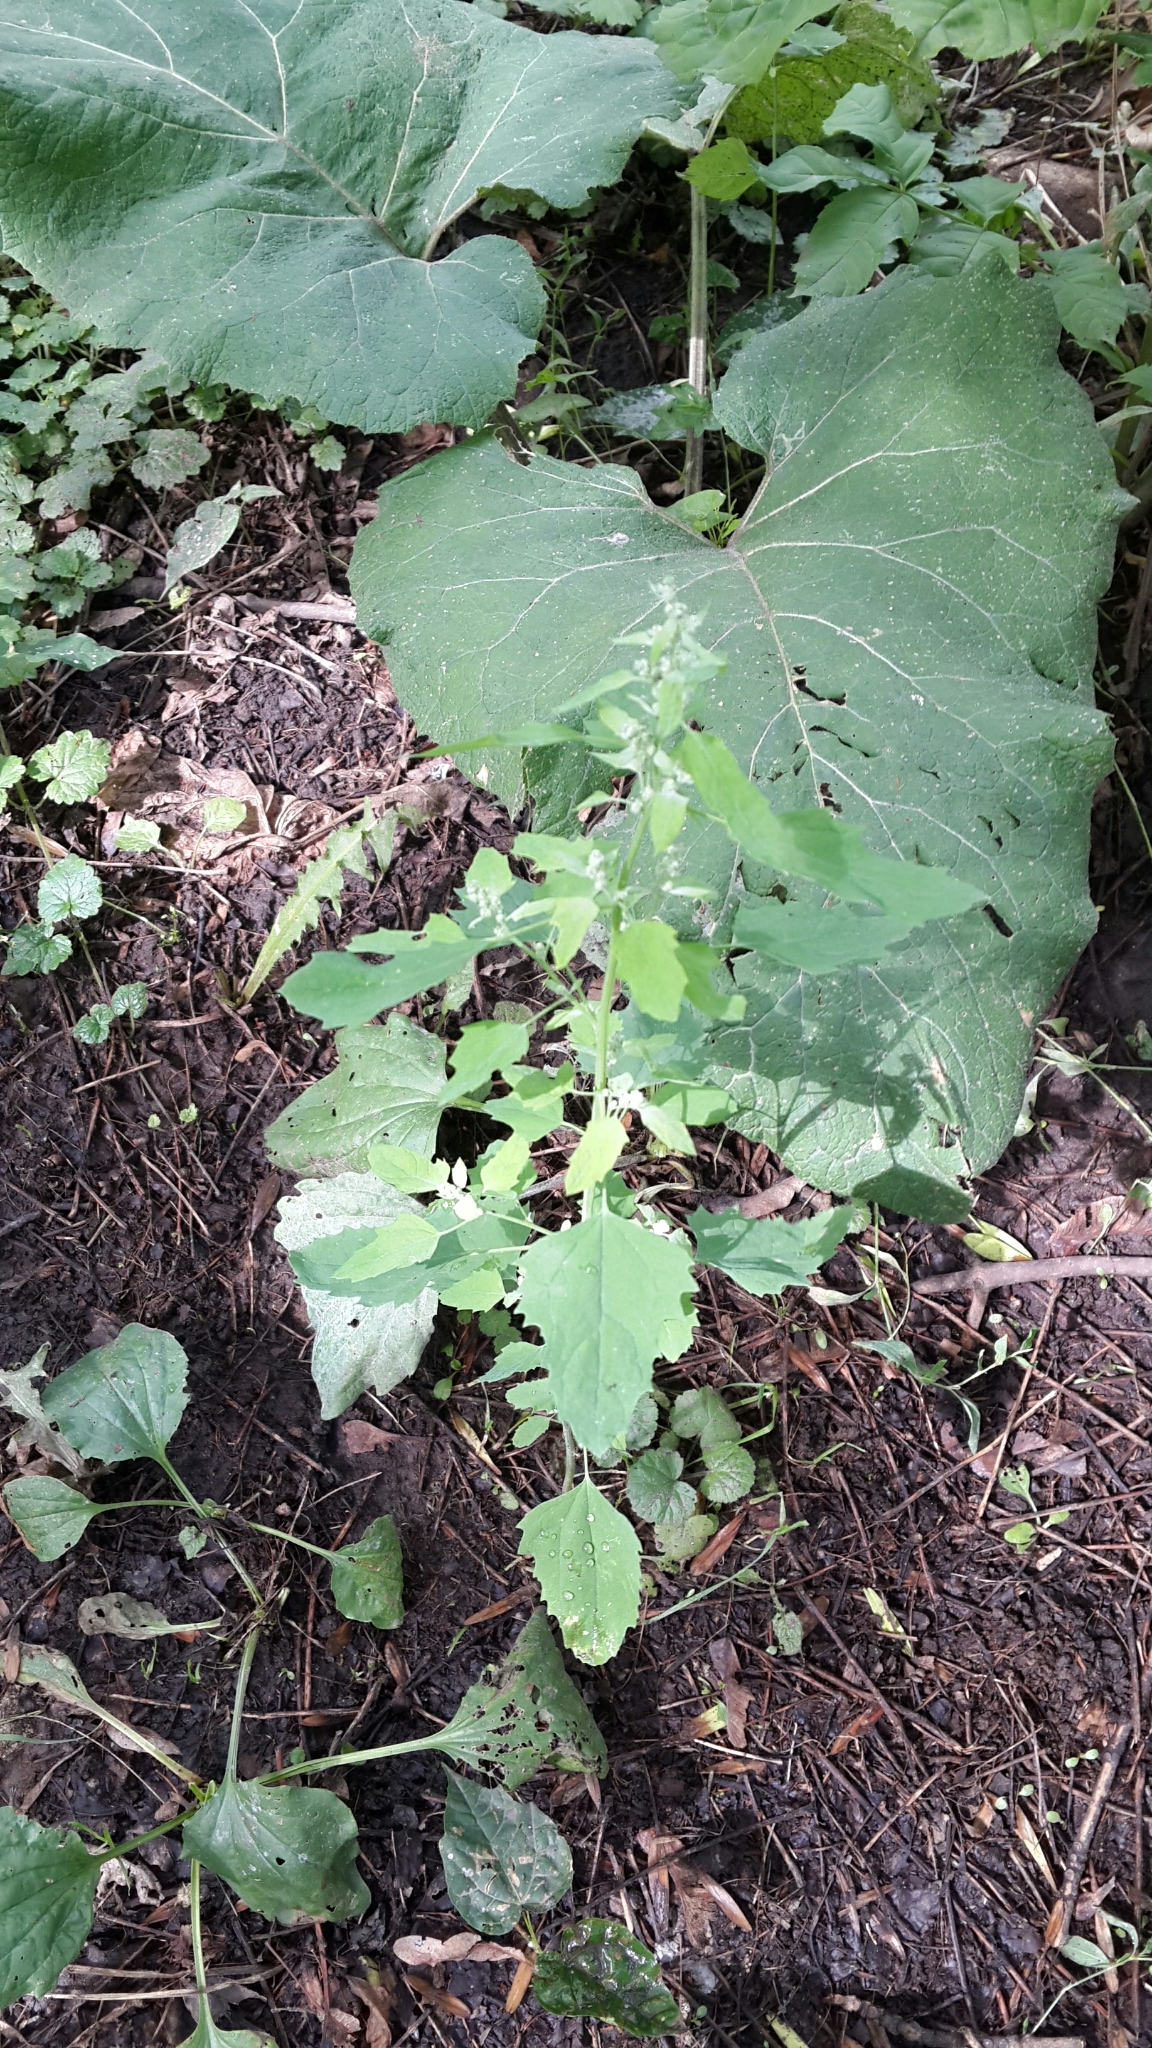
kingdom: Plantae
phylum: Tracheophyta
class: Magnoliopsida
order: Caryophyllales
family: Amaranthaceae
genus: Chenopodium
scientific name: Chenopodium album
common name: Fat-hen
